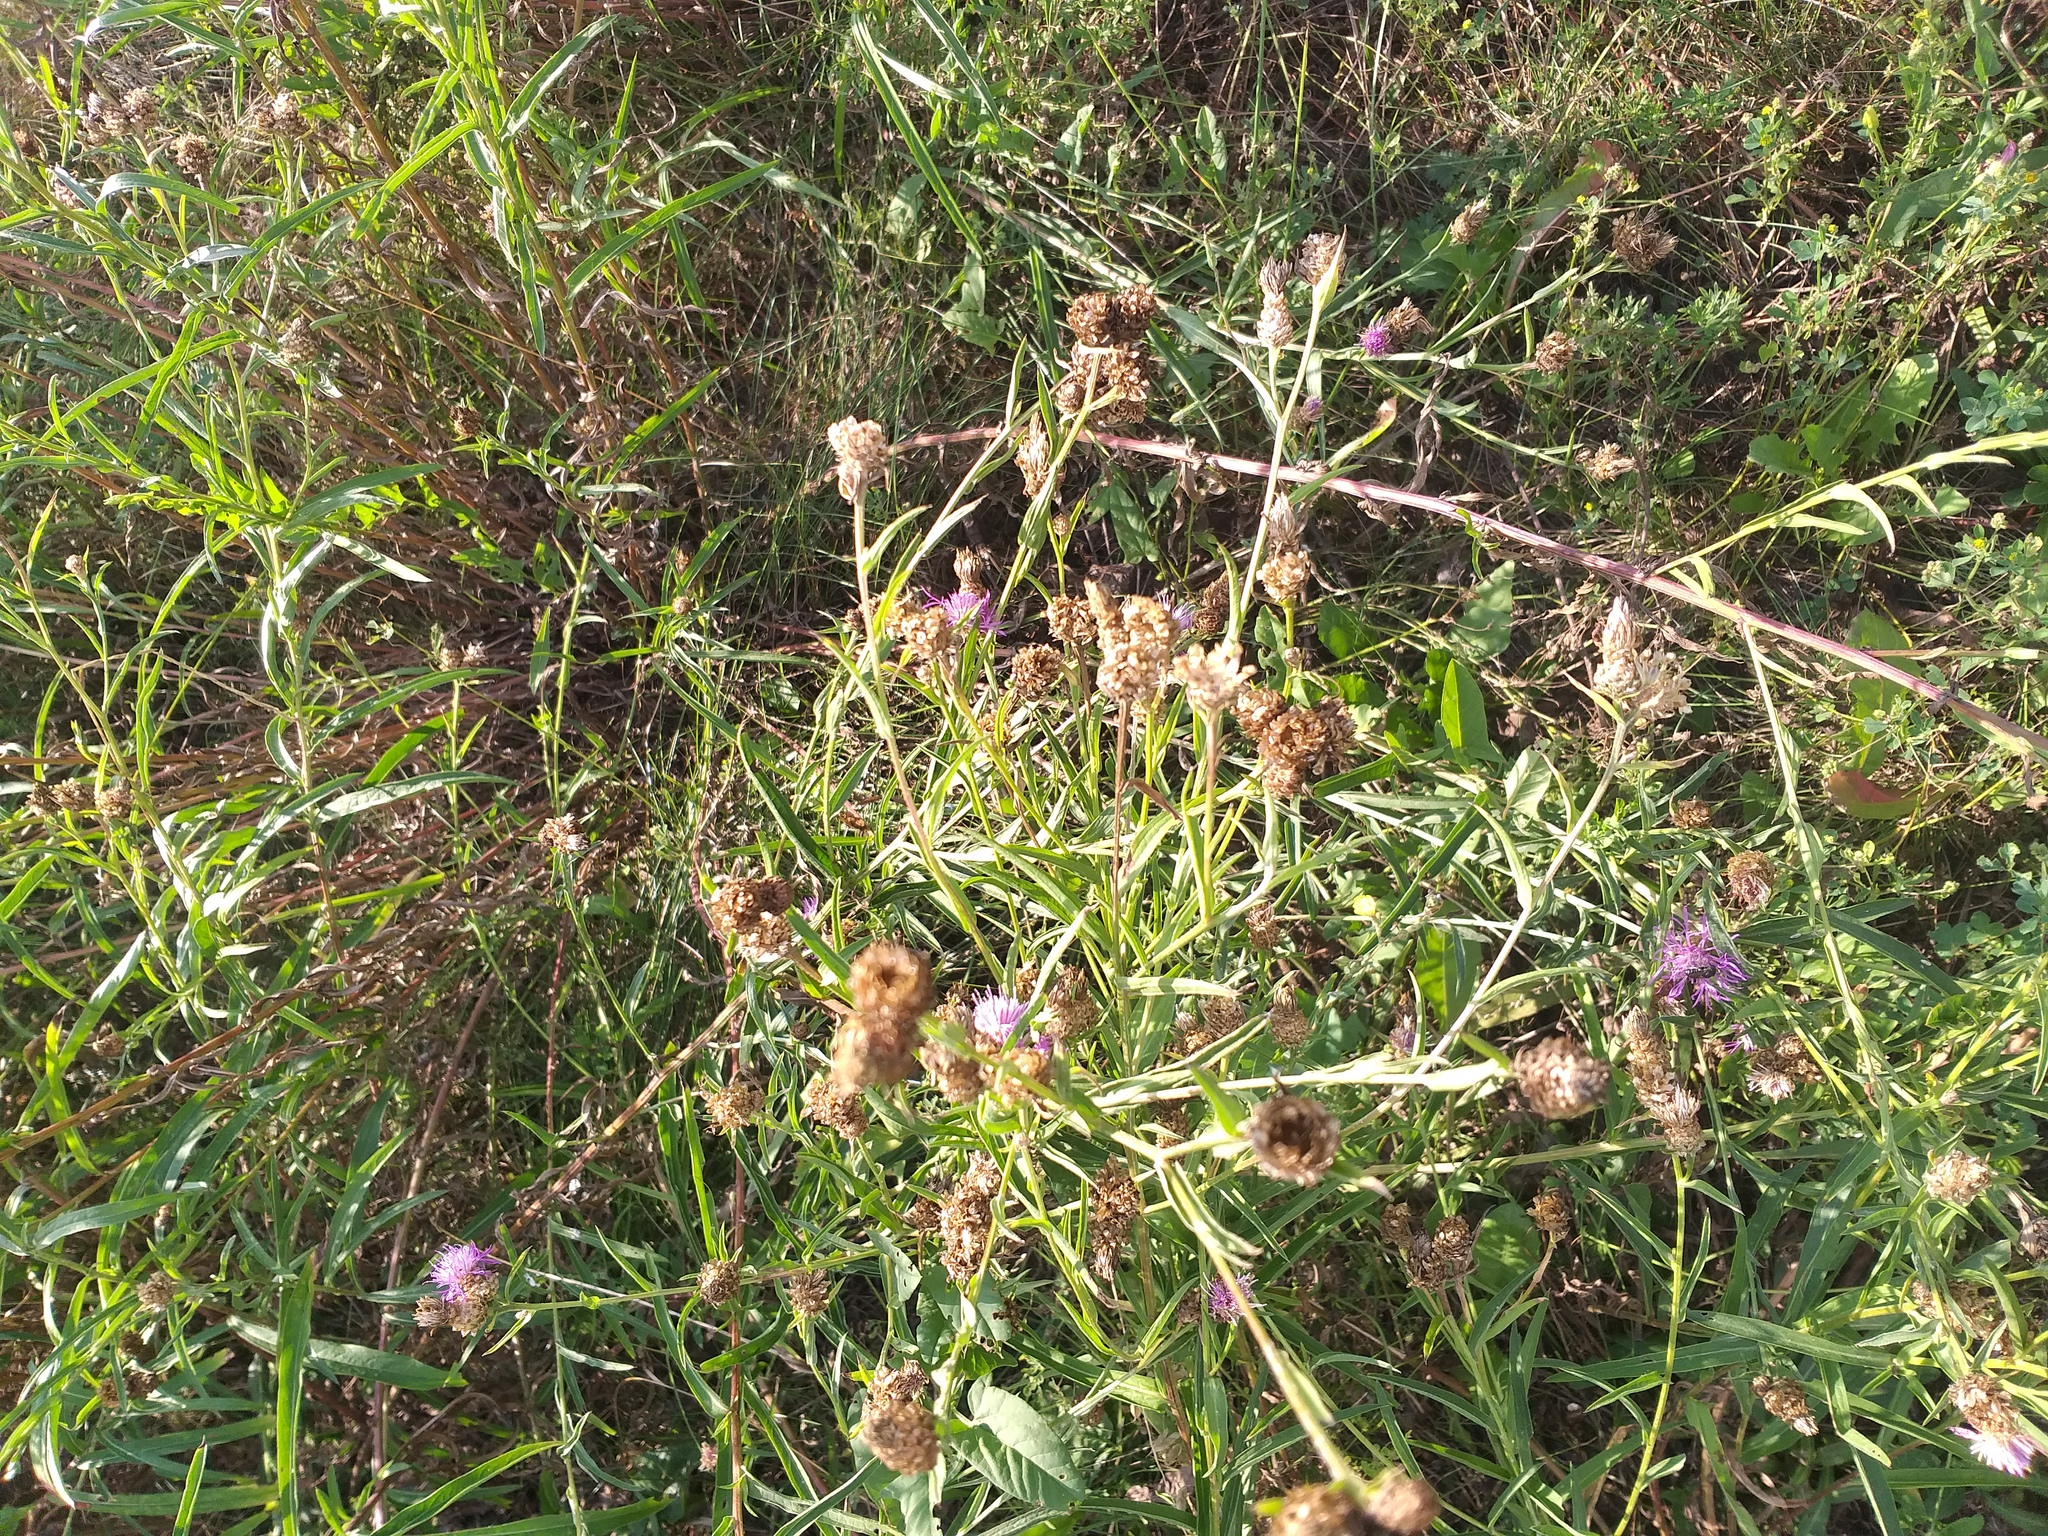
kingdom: Plantae
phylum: Tracheophyta
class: Magnoliopsida
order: Asterales
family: Asteraceae
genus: Centaurea
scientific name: Centaurea jacea
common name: Brown knapweed
